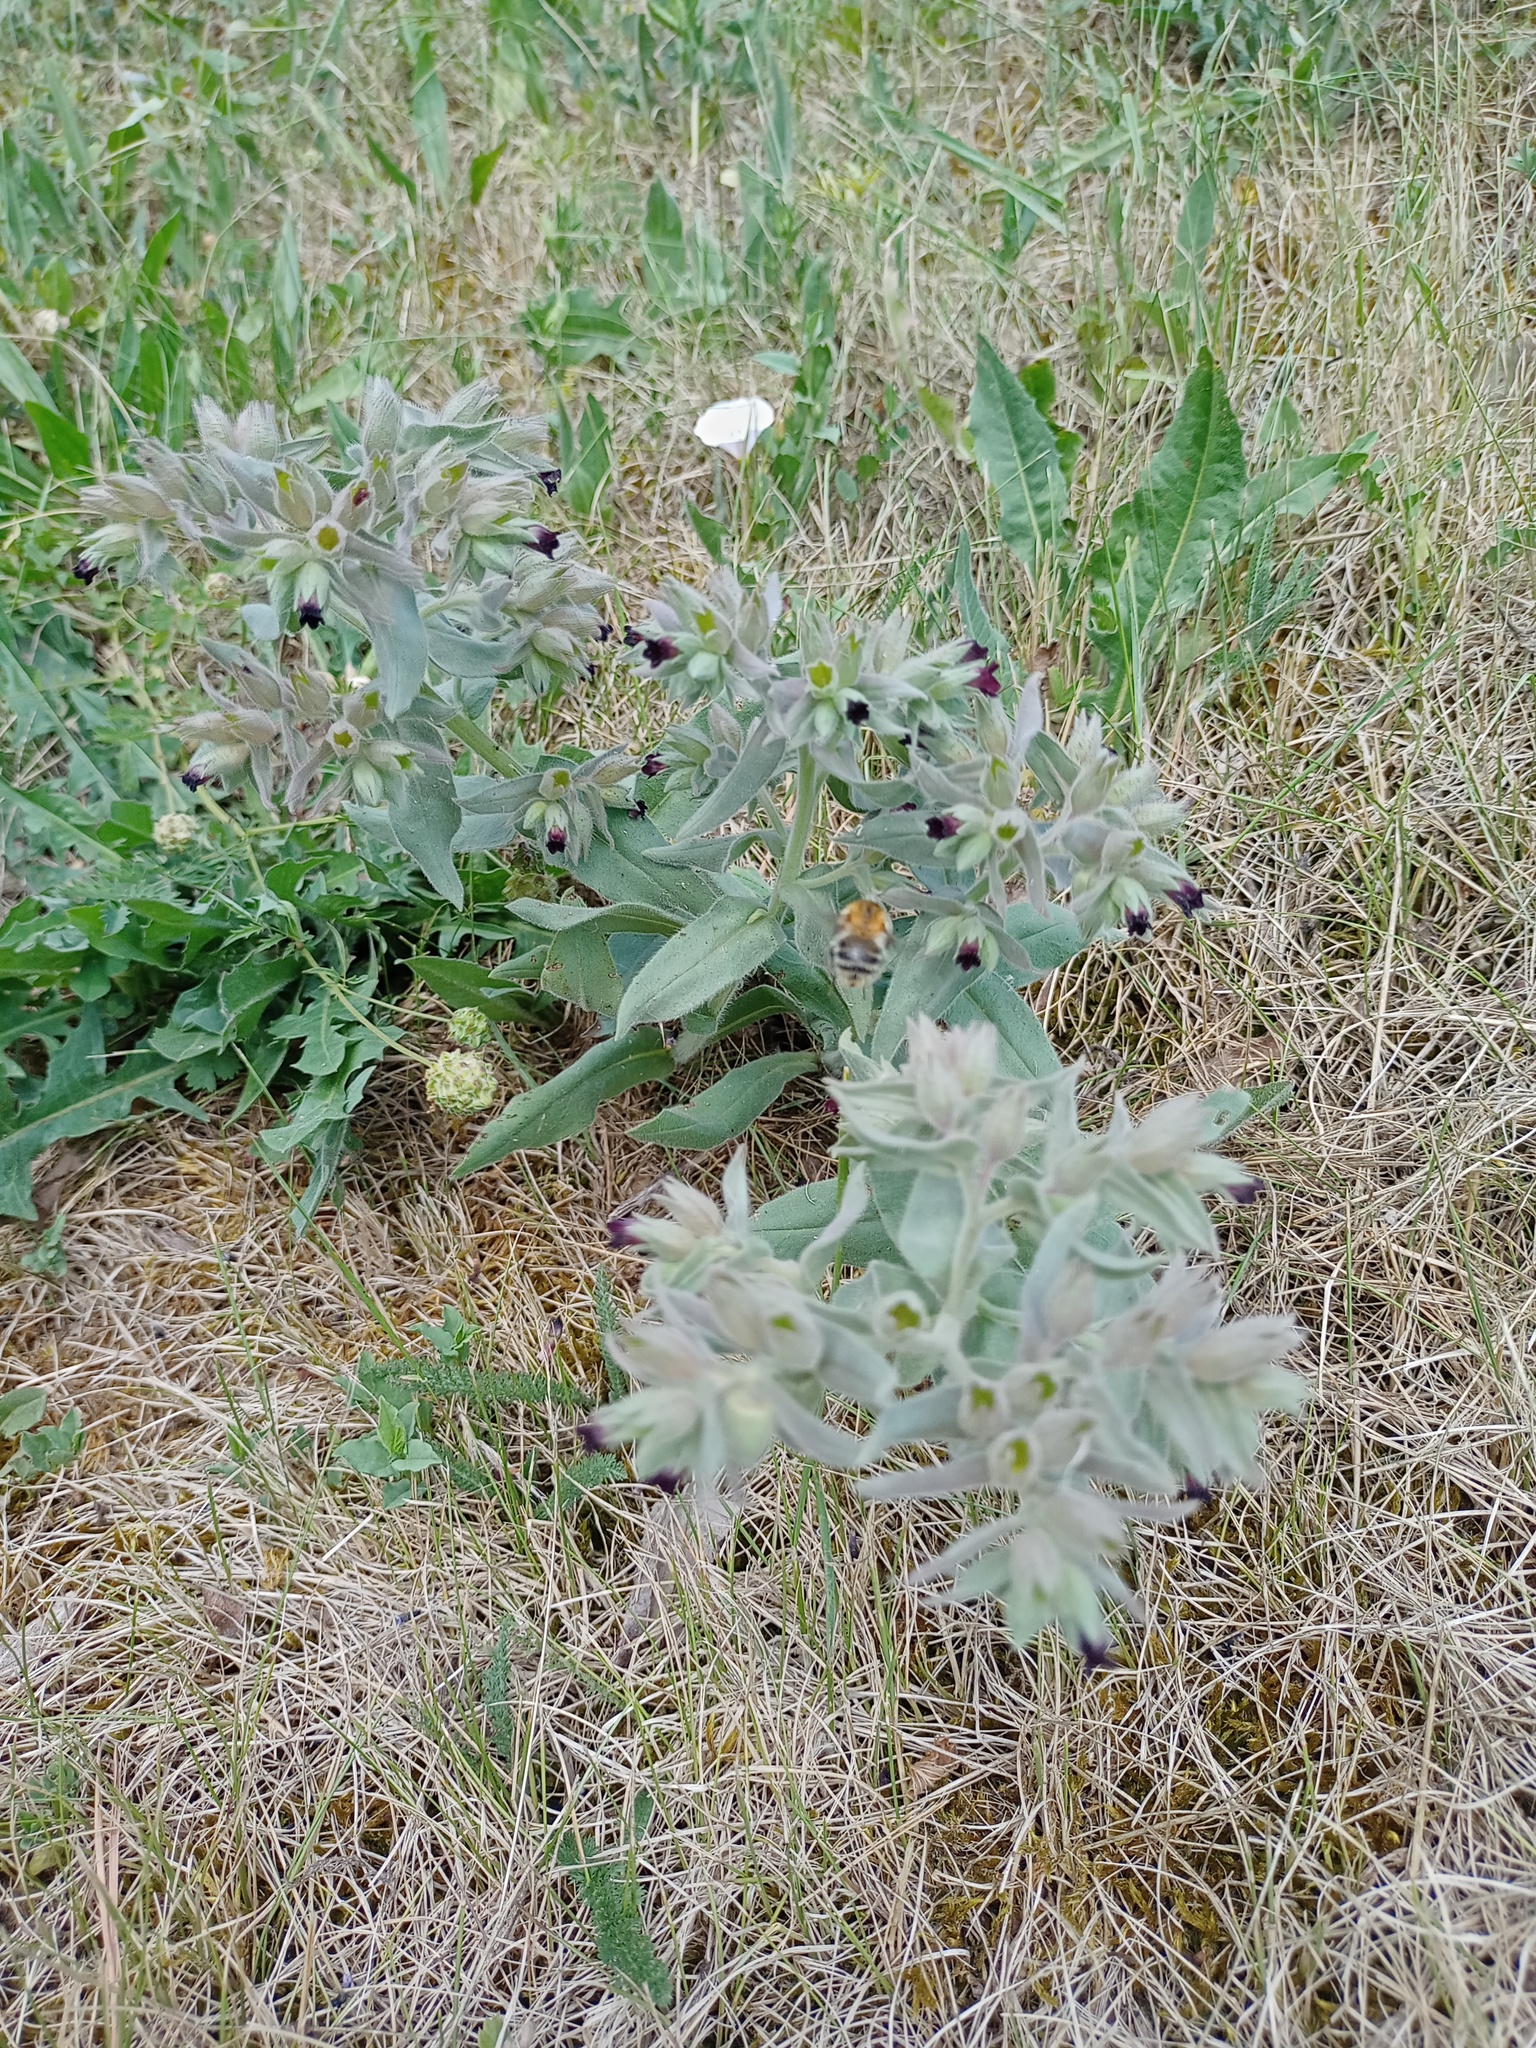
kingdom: Plantae
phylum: Tracheophyta
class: Magnoliopsida
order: Boraginales
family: Boraginaceae
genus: Nonea
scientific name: Nonea pulla
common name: Brown nonea
